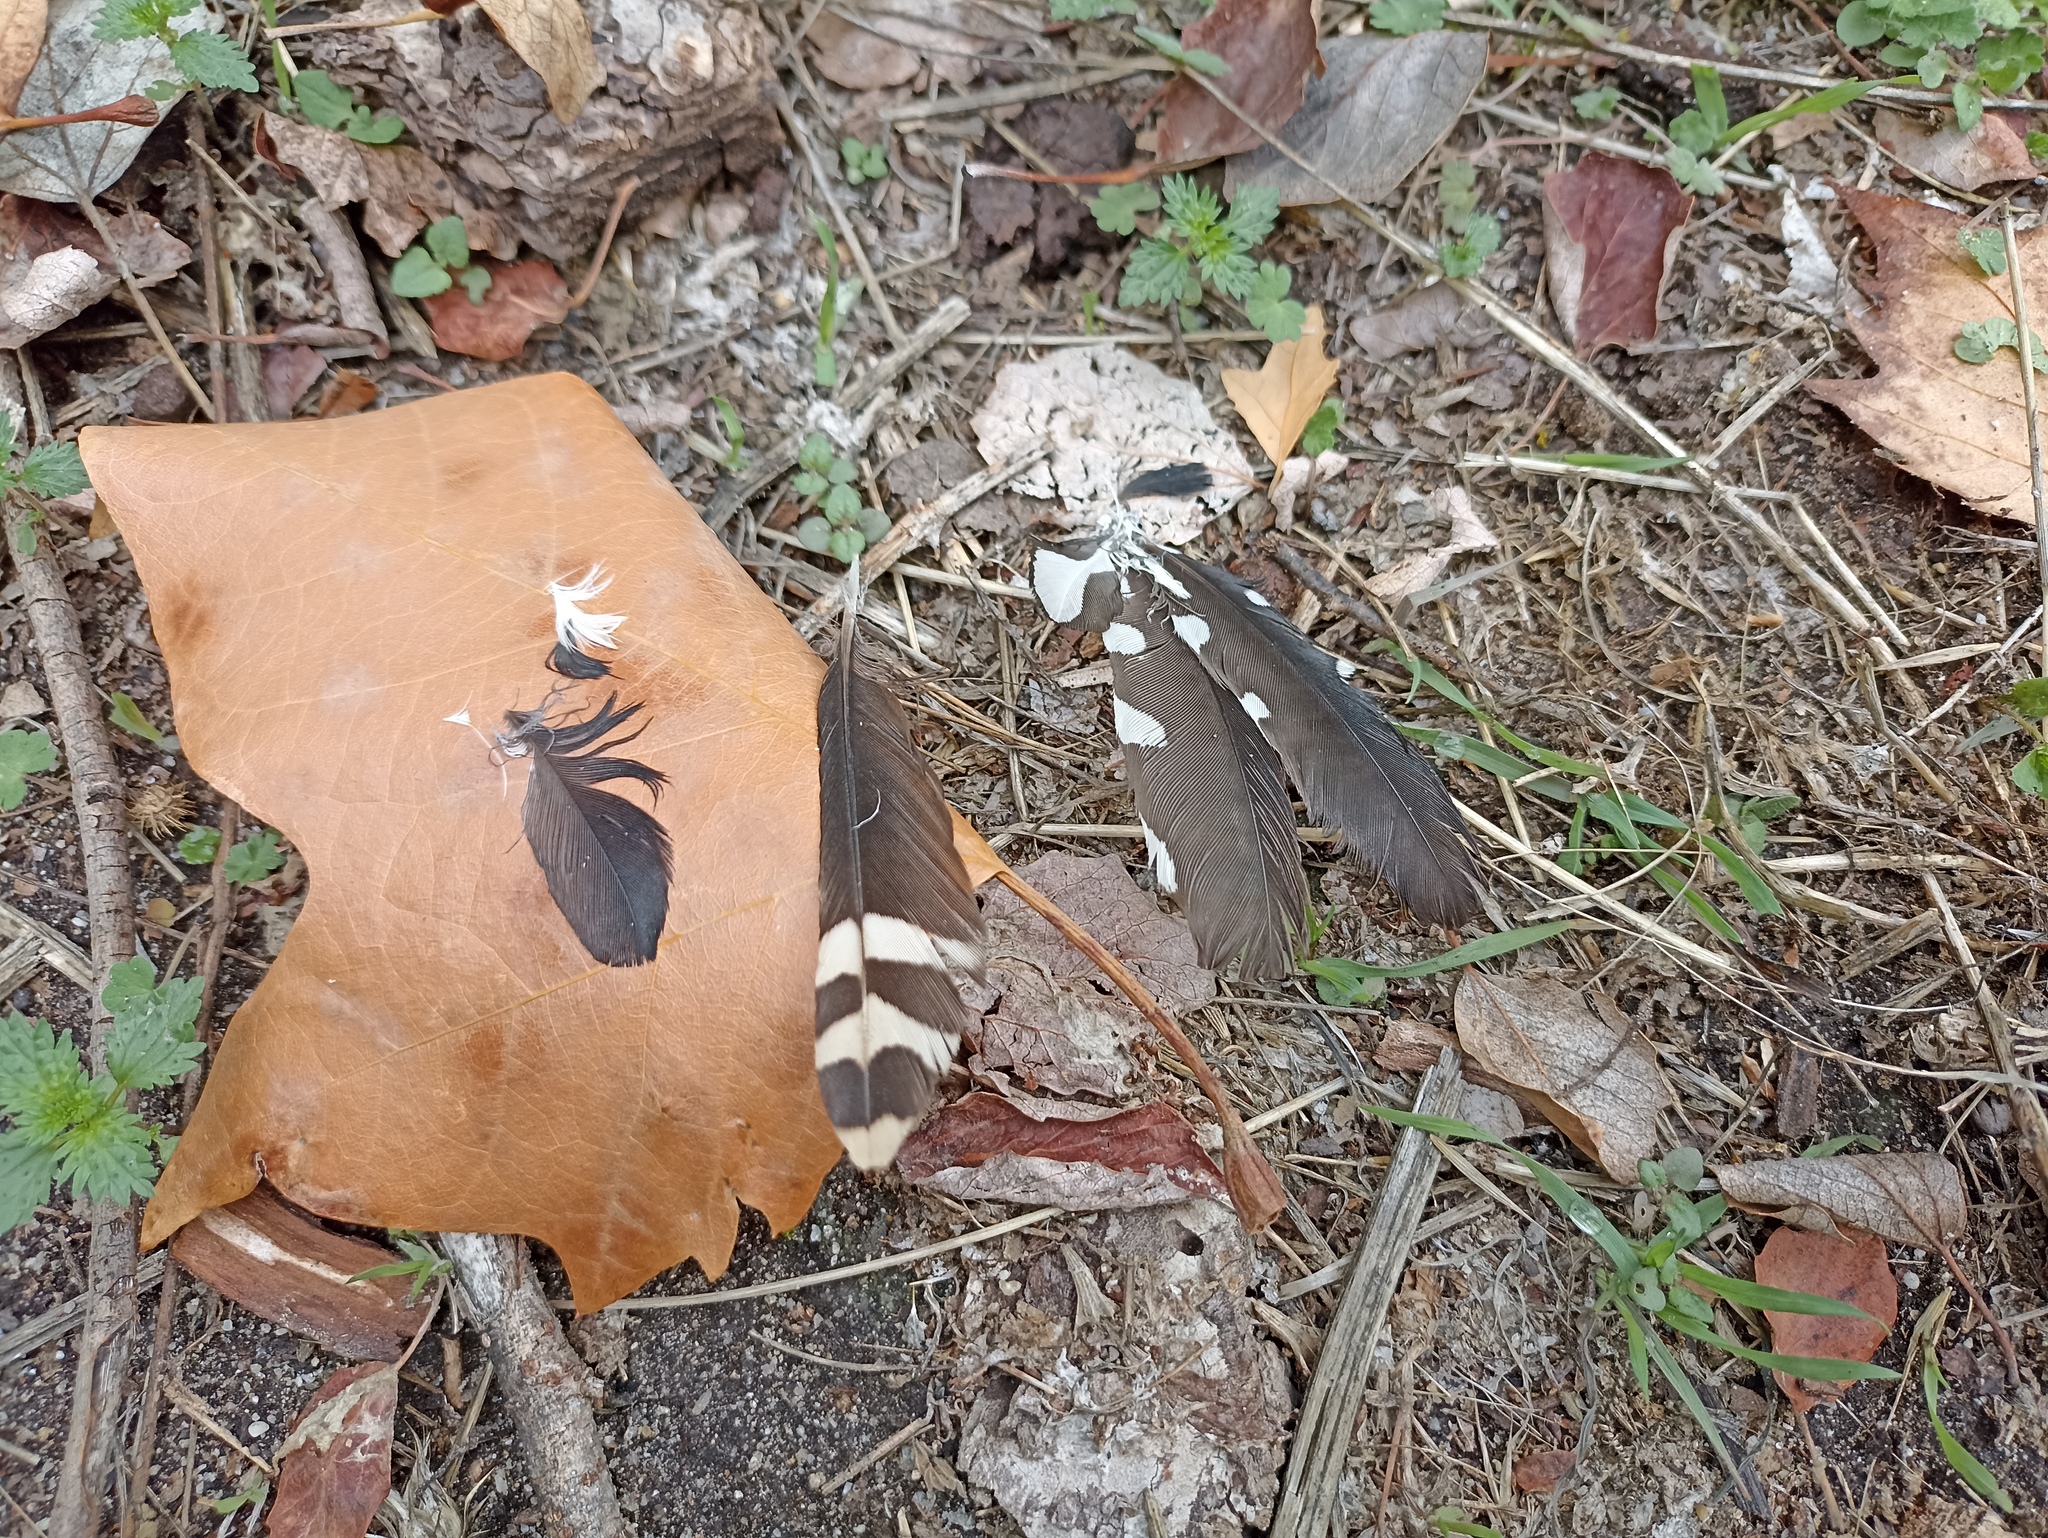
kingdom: Animalia
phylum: Chordata
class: Aves
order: Piciformes
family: Picidae
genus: Dendrocopos
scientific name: Dendrocopos major
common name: Great spotted woodpecker
